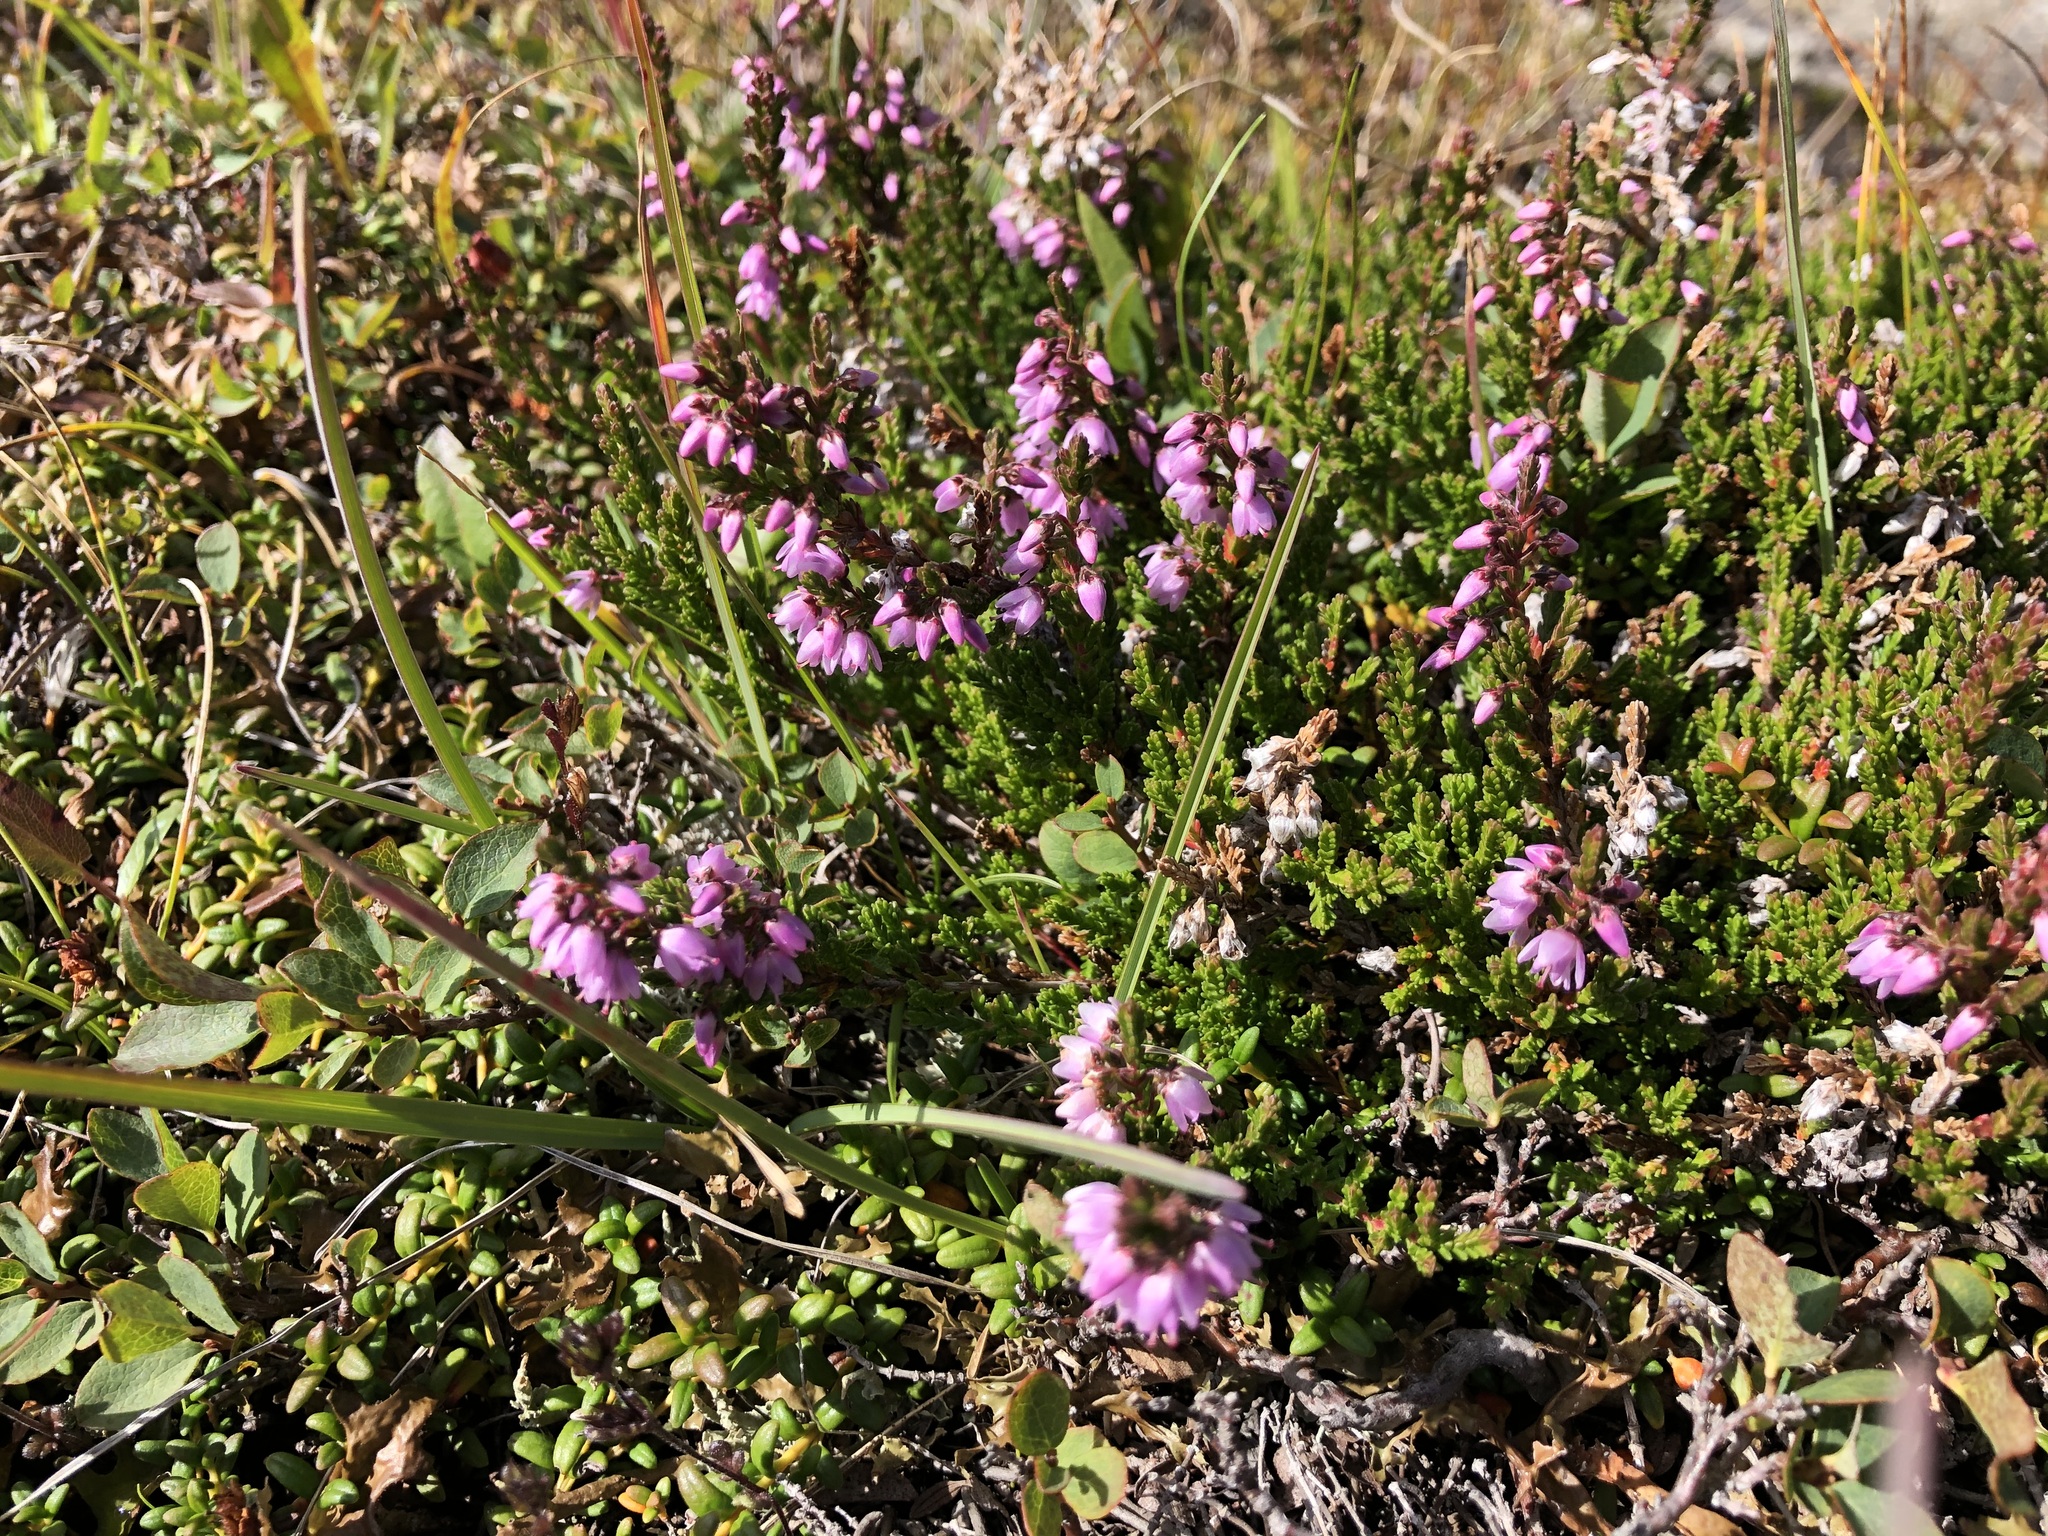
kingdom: Plantae
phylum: Tracheophyta
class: Magnoliopsida
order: Ericales
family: Ericaceae
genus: Calluna
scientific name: Calluna vulgaris
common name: Heather
